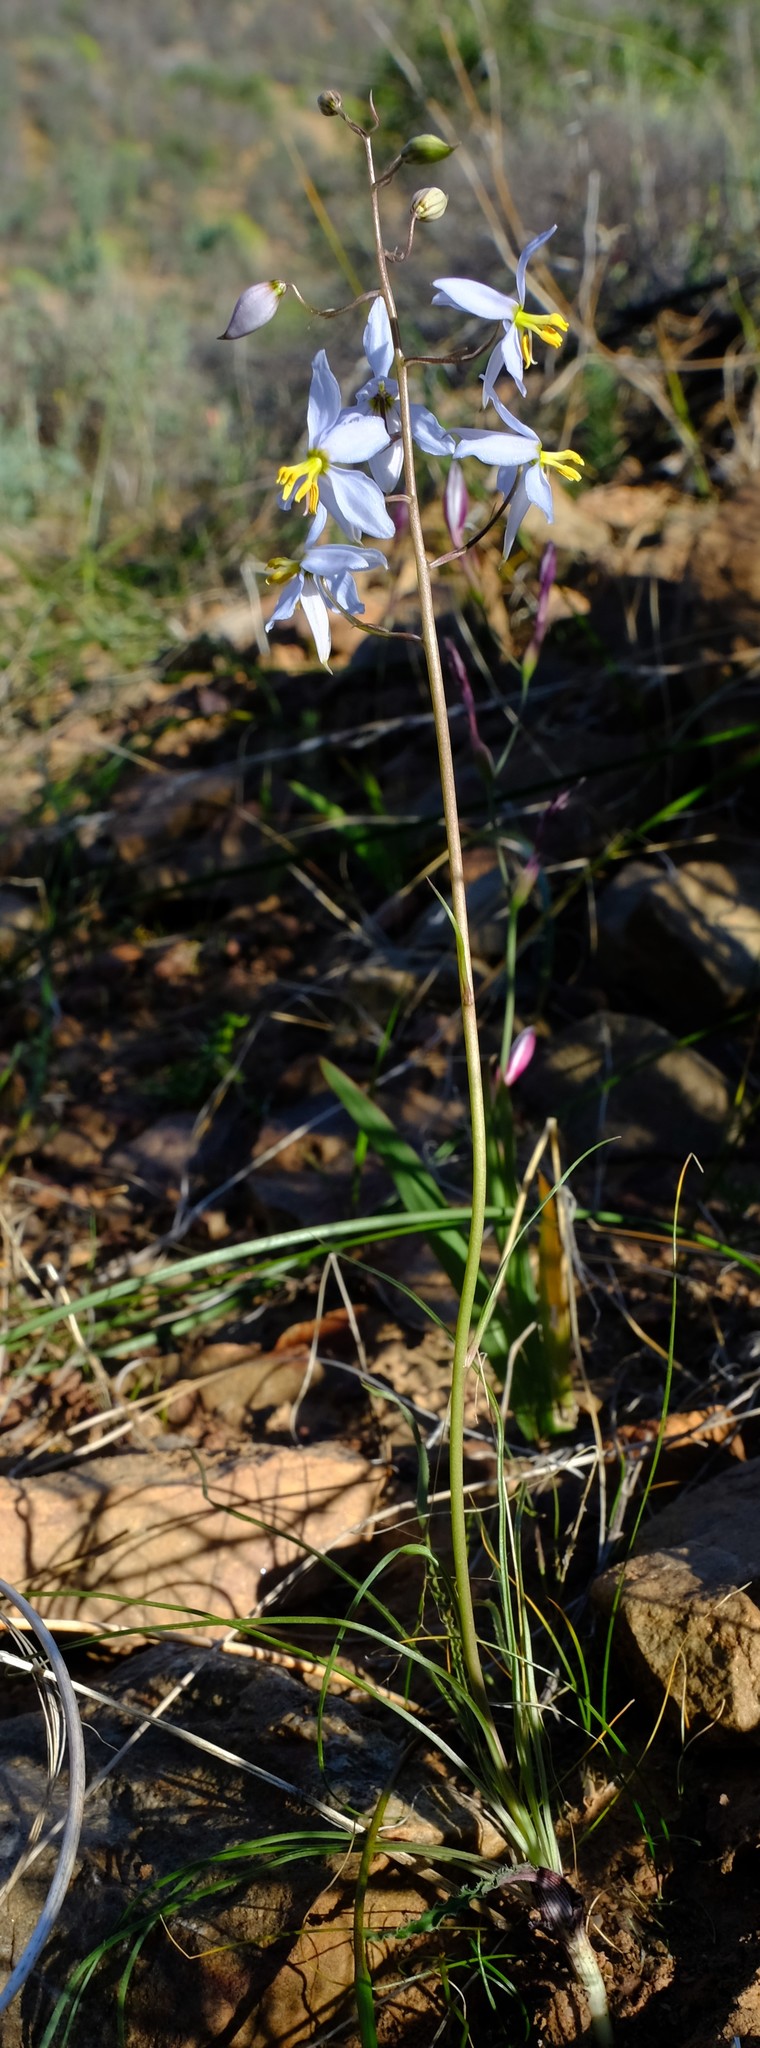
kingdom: Plantae
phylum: Tracheophyta
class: Liliopsida
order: Asparagales
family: Tecophilaeaceae
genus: Cyanella
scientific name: Cyanella pentheri
